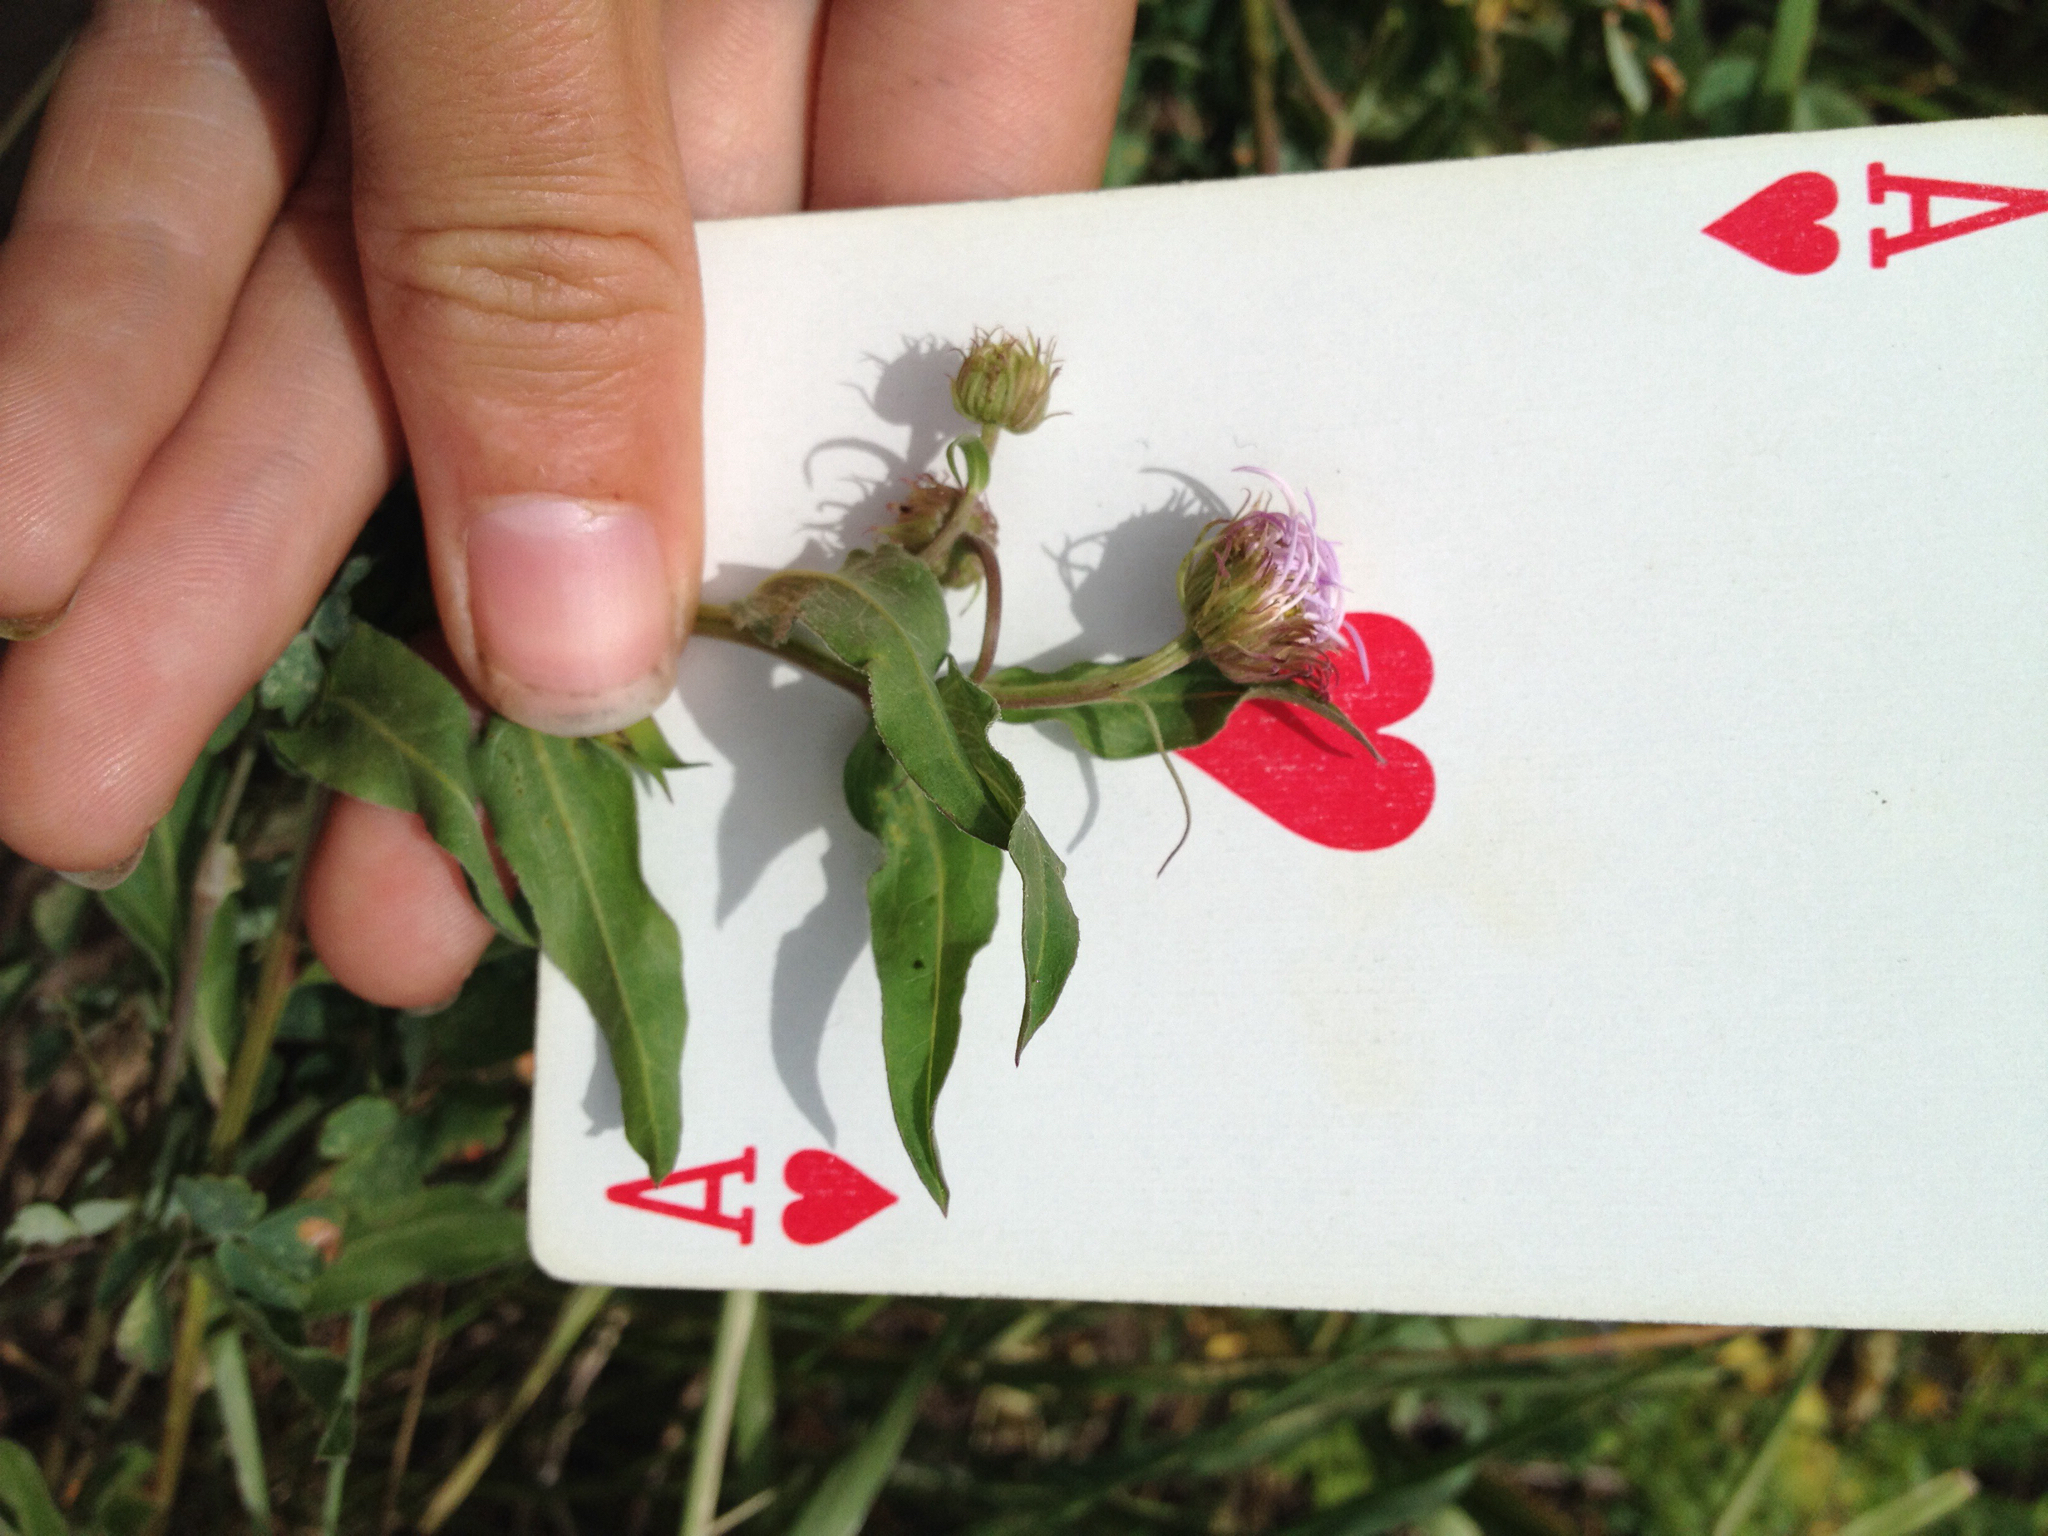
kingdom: Plantae
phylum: Tracheophyta
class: Magnoliopsida
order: Asterales
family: Asteraceae
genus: Erigeron
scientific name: Erigeron speciosus
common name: Aspen fleabane
